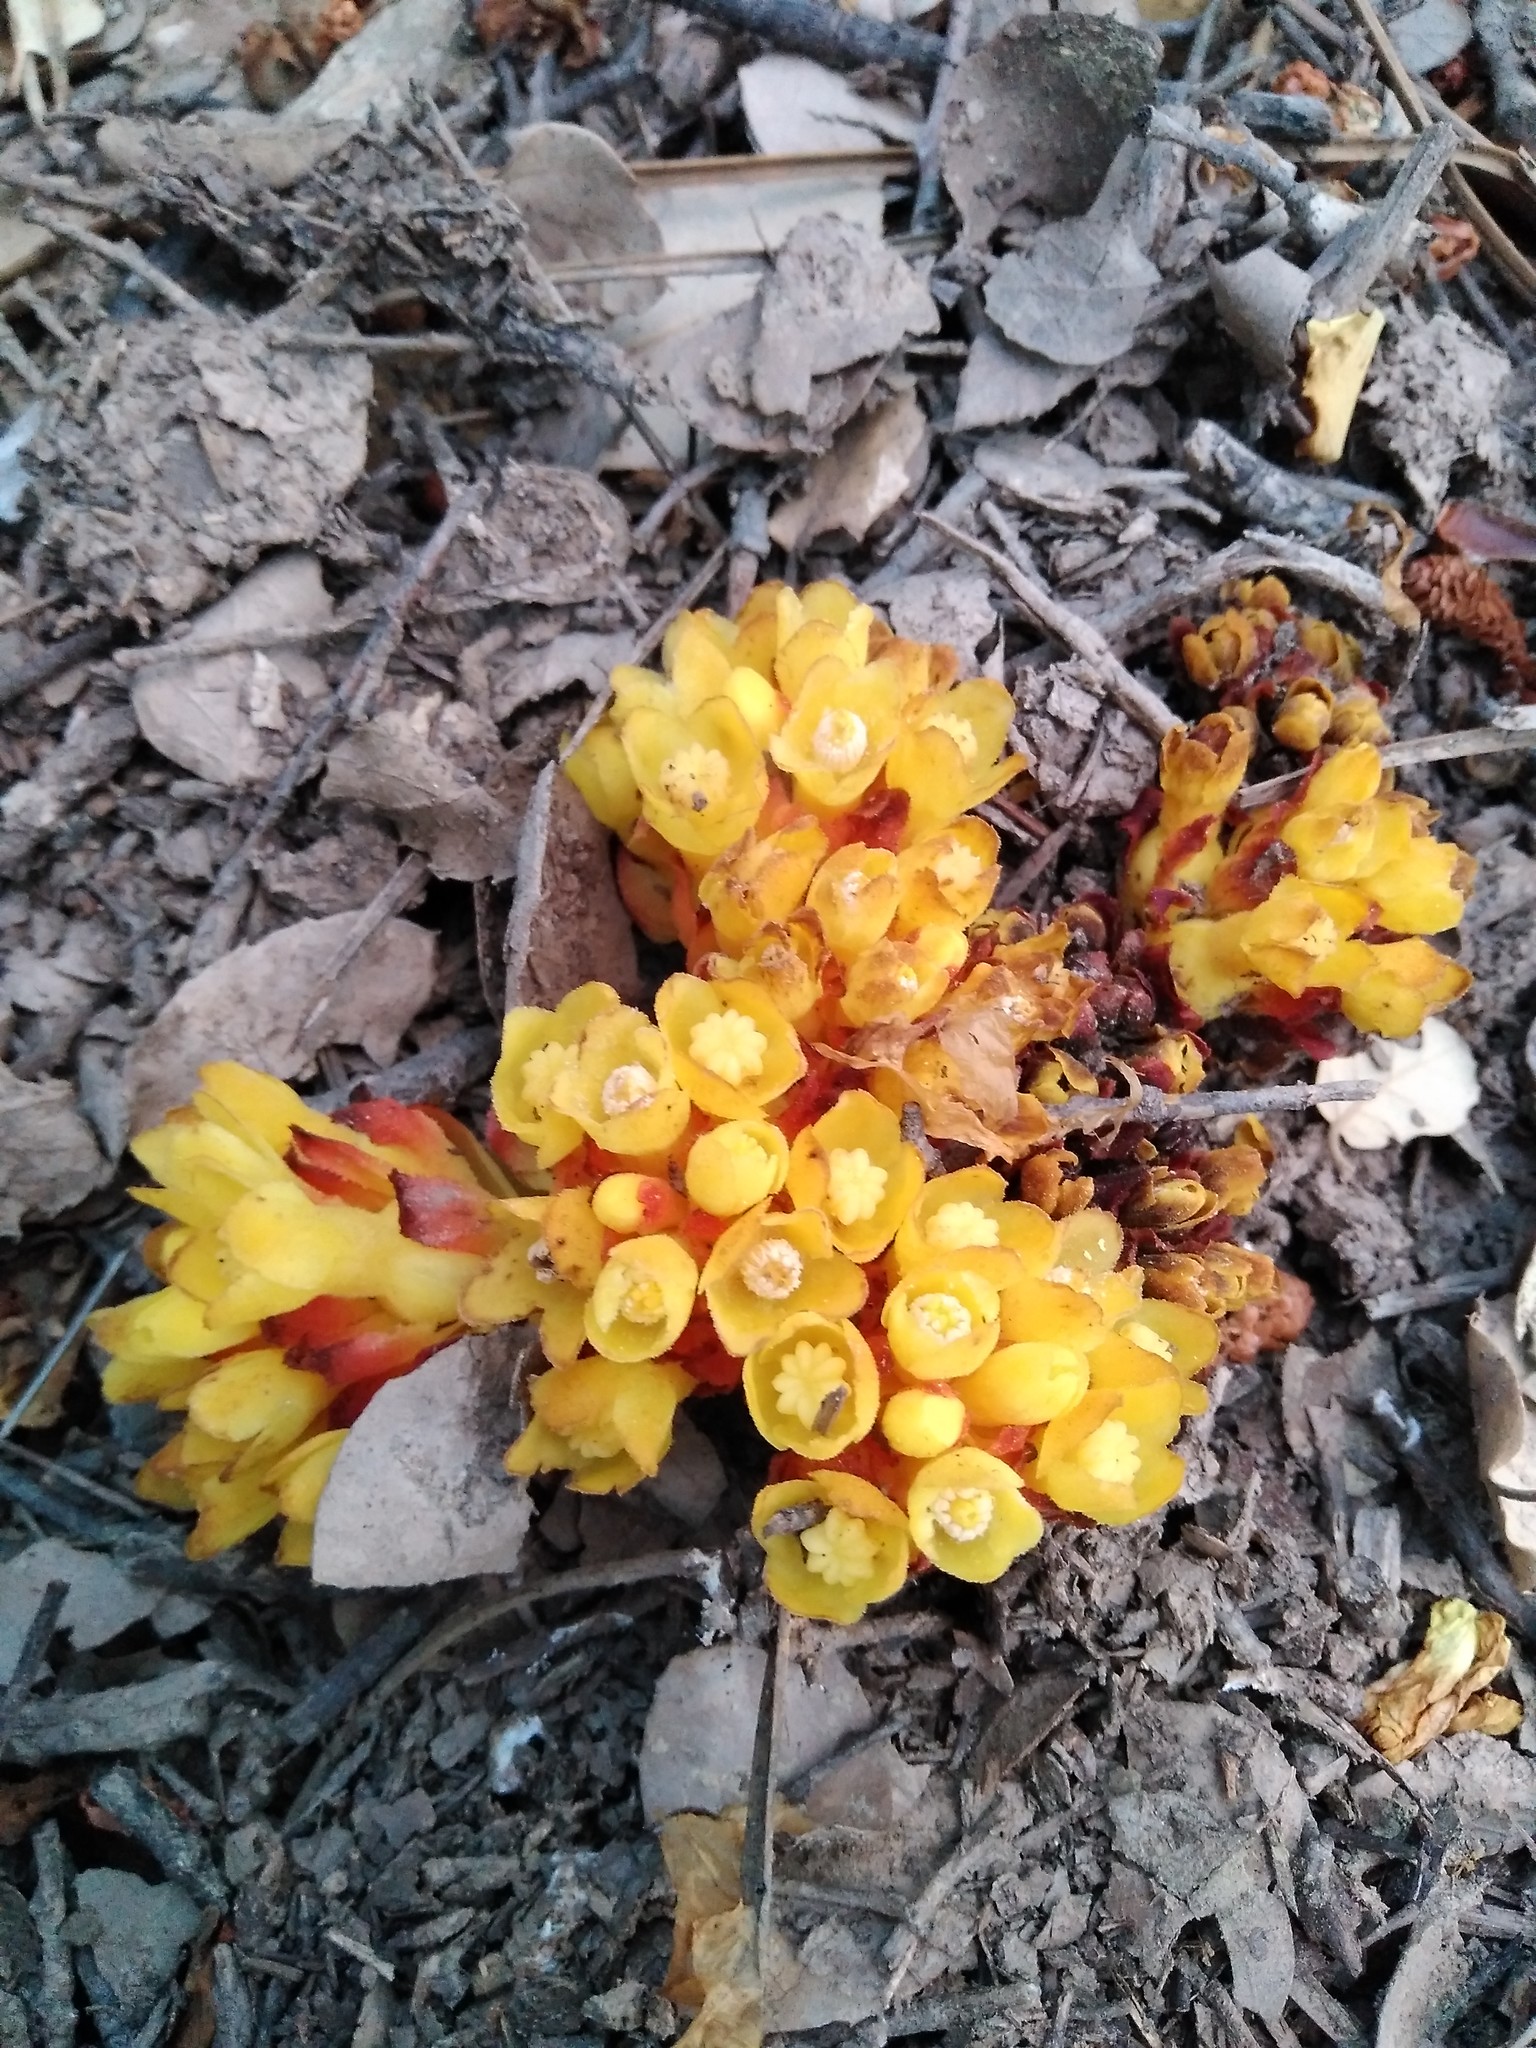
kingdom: Plantae
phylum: Tracheophyta
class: Magnoliopsida
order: Malvales
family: Cytinaceae
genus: Cytinus
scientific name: Cytinus hypocistis
